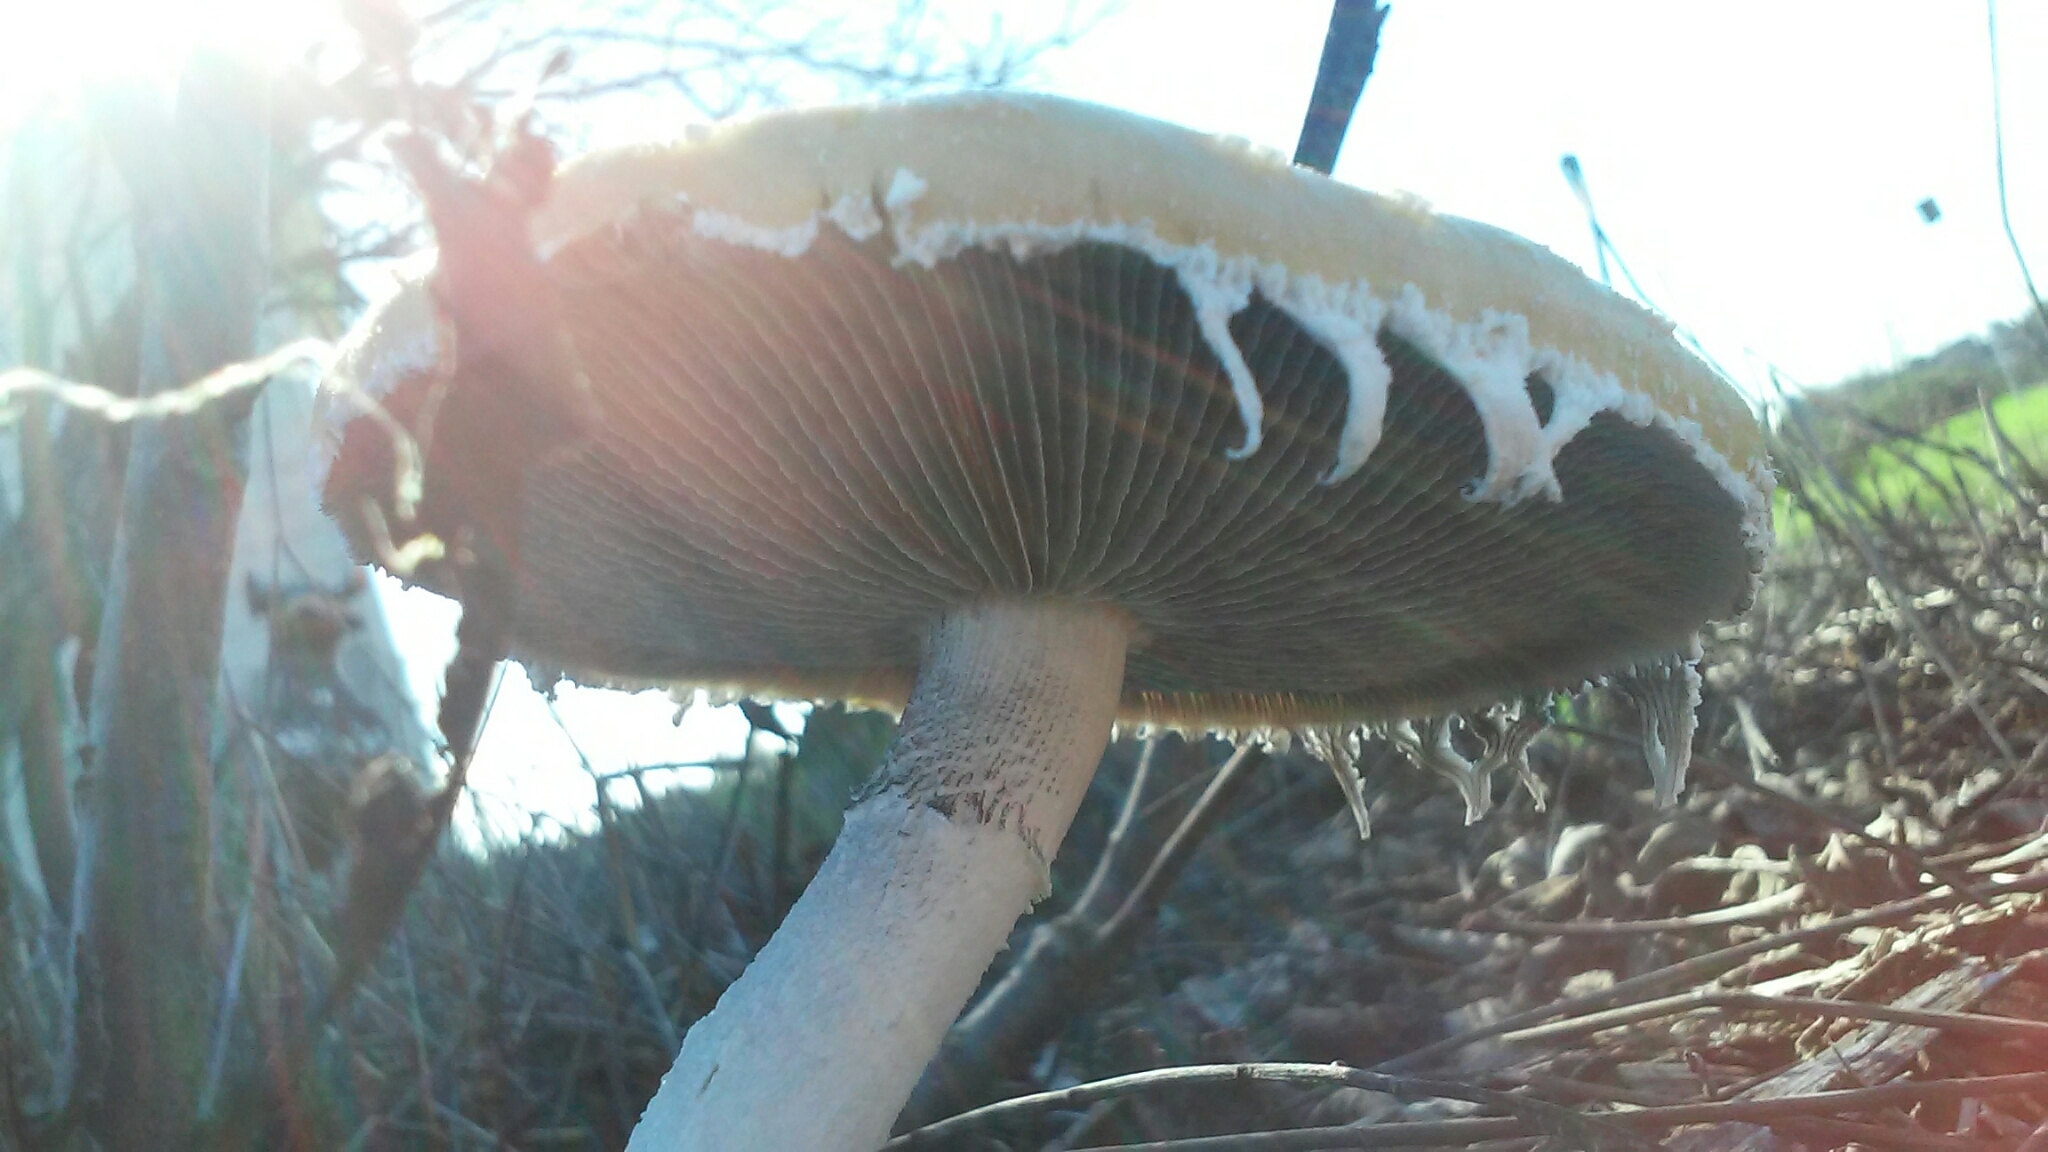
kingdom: Fungi
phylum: Basidiomycota
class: Agaricomycetes
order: Agaricales
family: Strophariaceae
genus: Stropharia
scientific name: Stropharia ambigua
